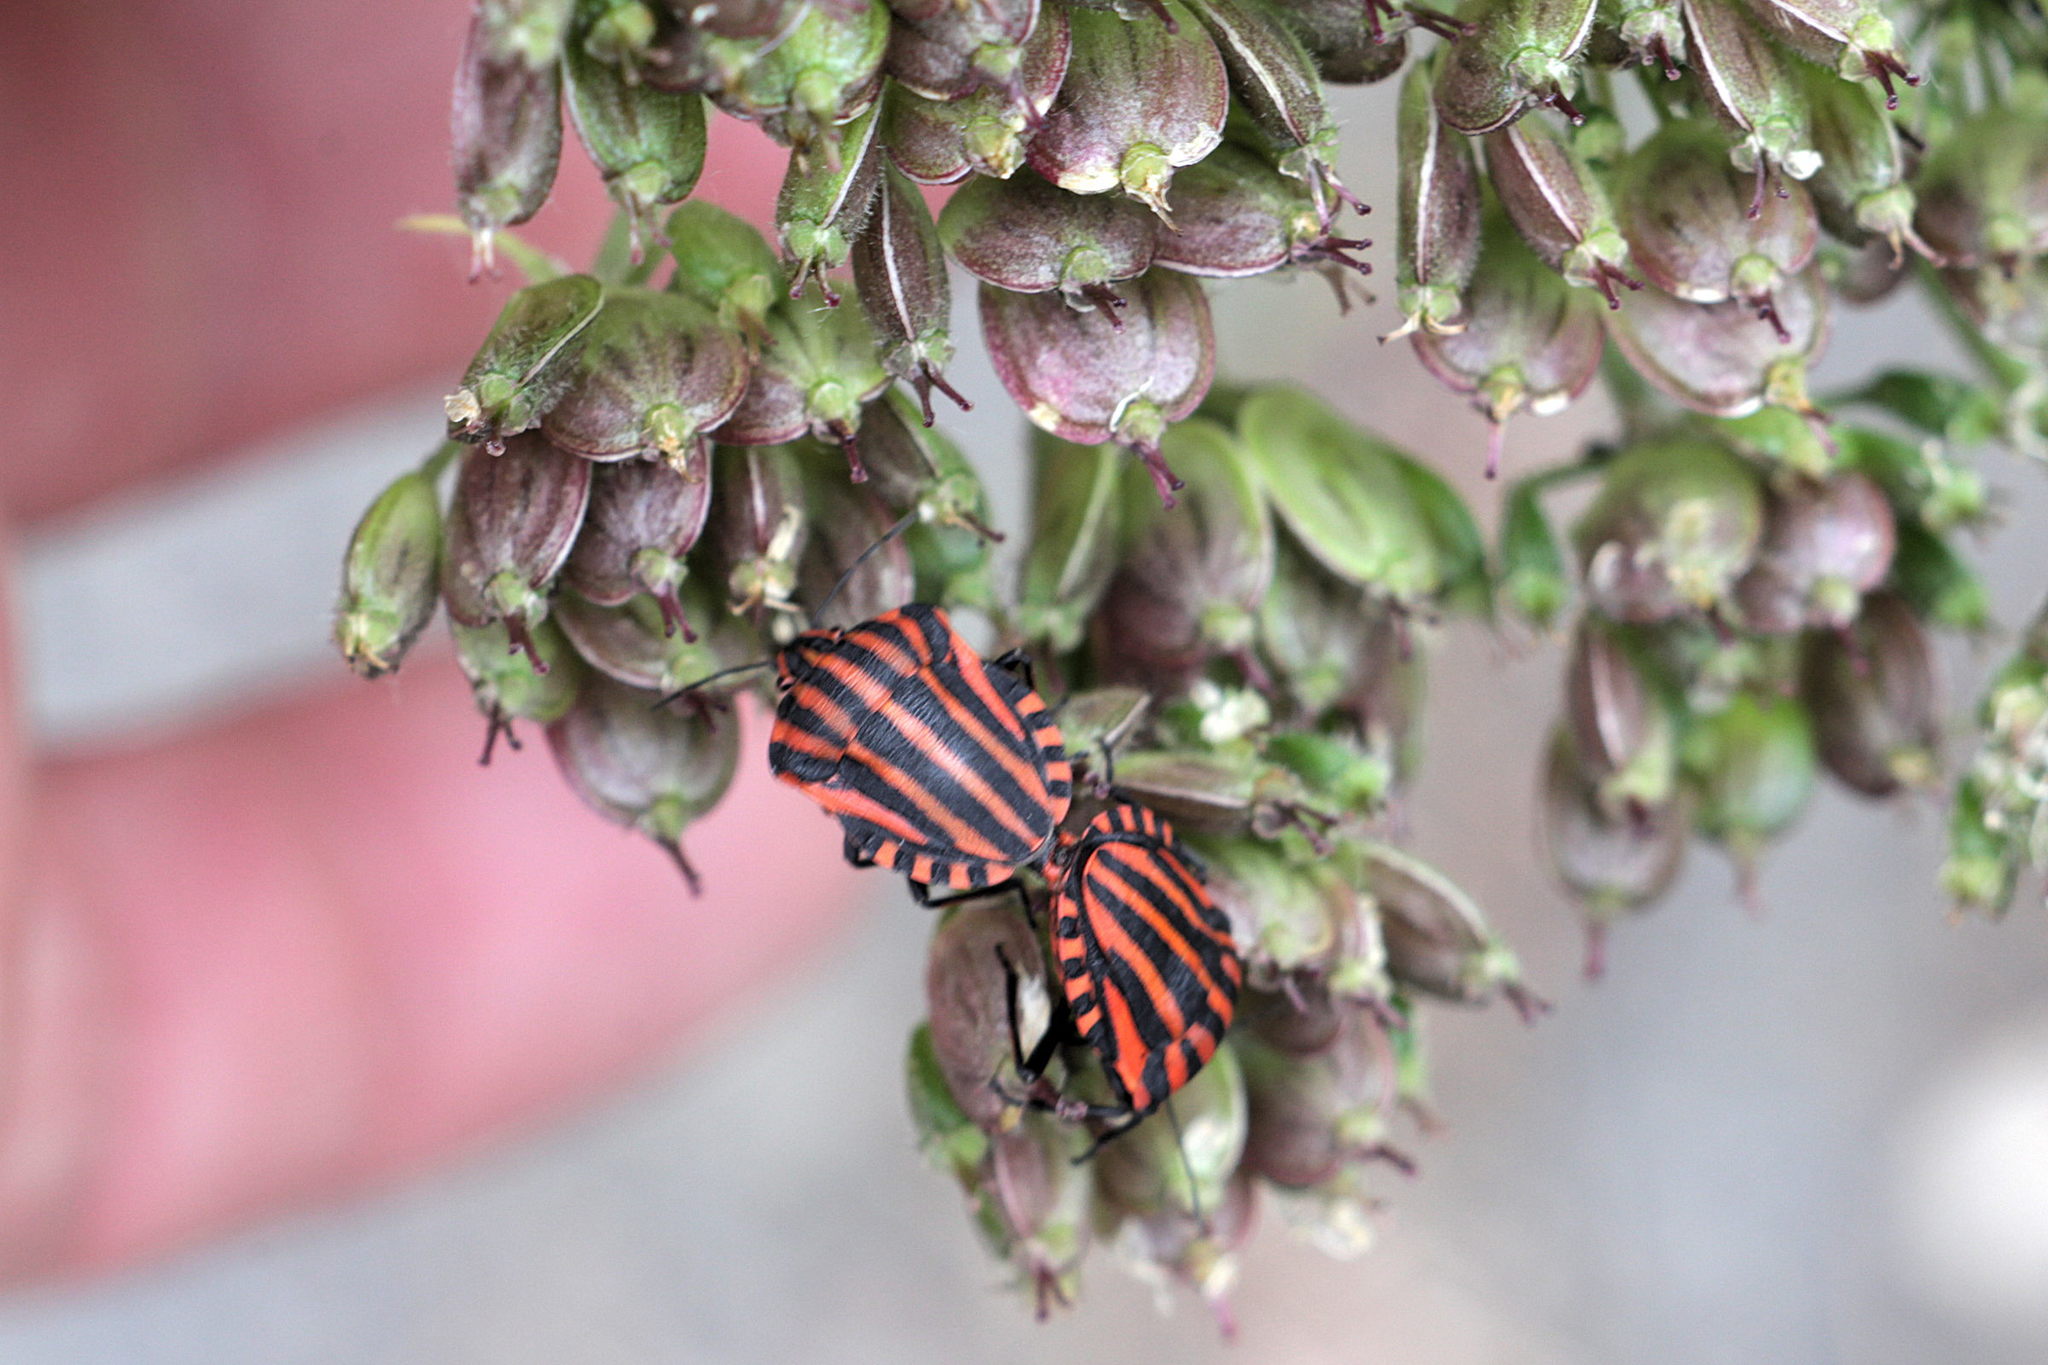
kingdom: Animalia
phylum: Arthropoda
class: Insecta
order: Hemiptera
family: Pentatomidae
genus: Graphosoma
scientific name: Graphosoma italicum
